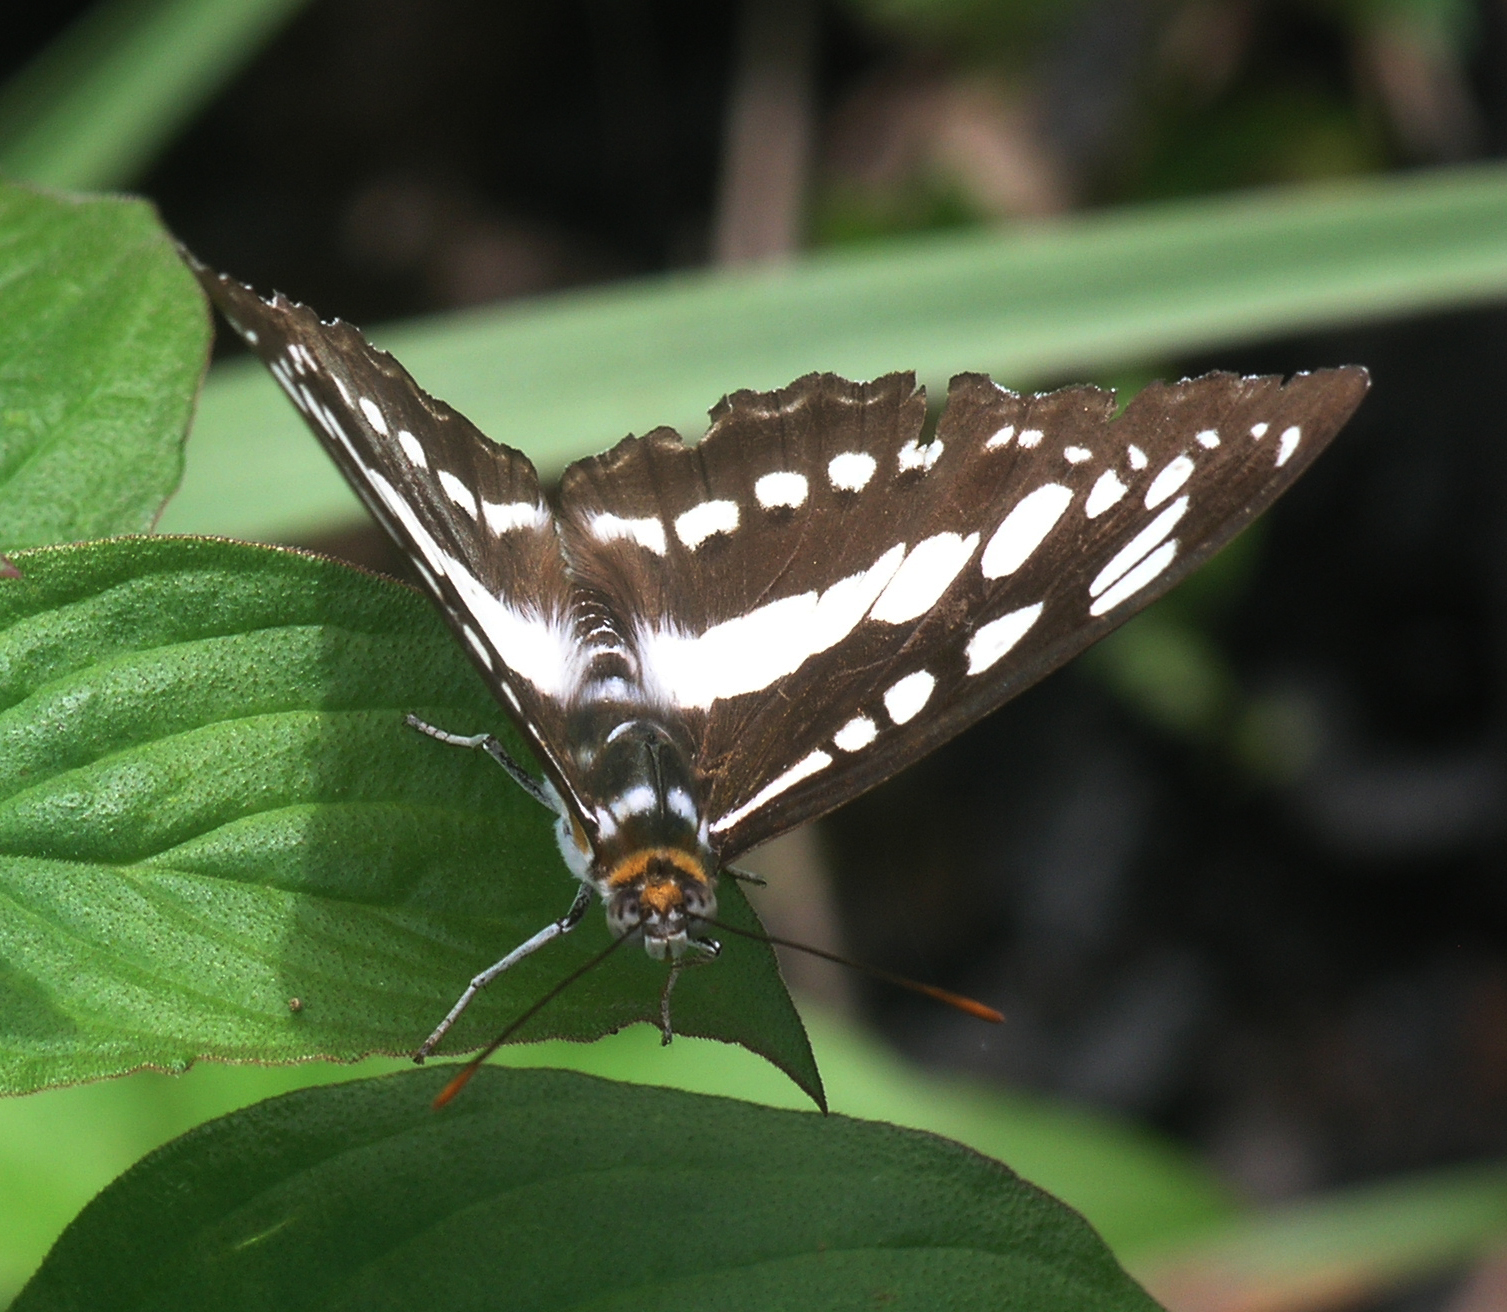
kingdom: Animalia
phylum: Arthropoda
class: Insecta
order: Lepidoptera
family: Nymphalidae
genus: Parathyma
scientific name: Parathyma perius
